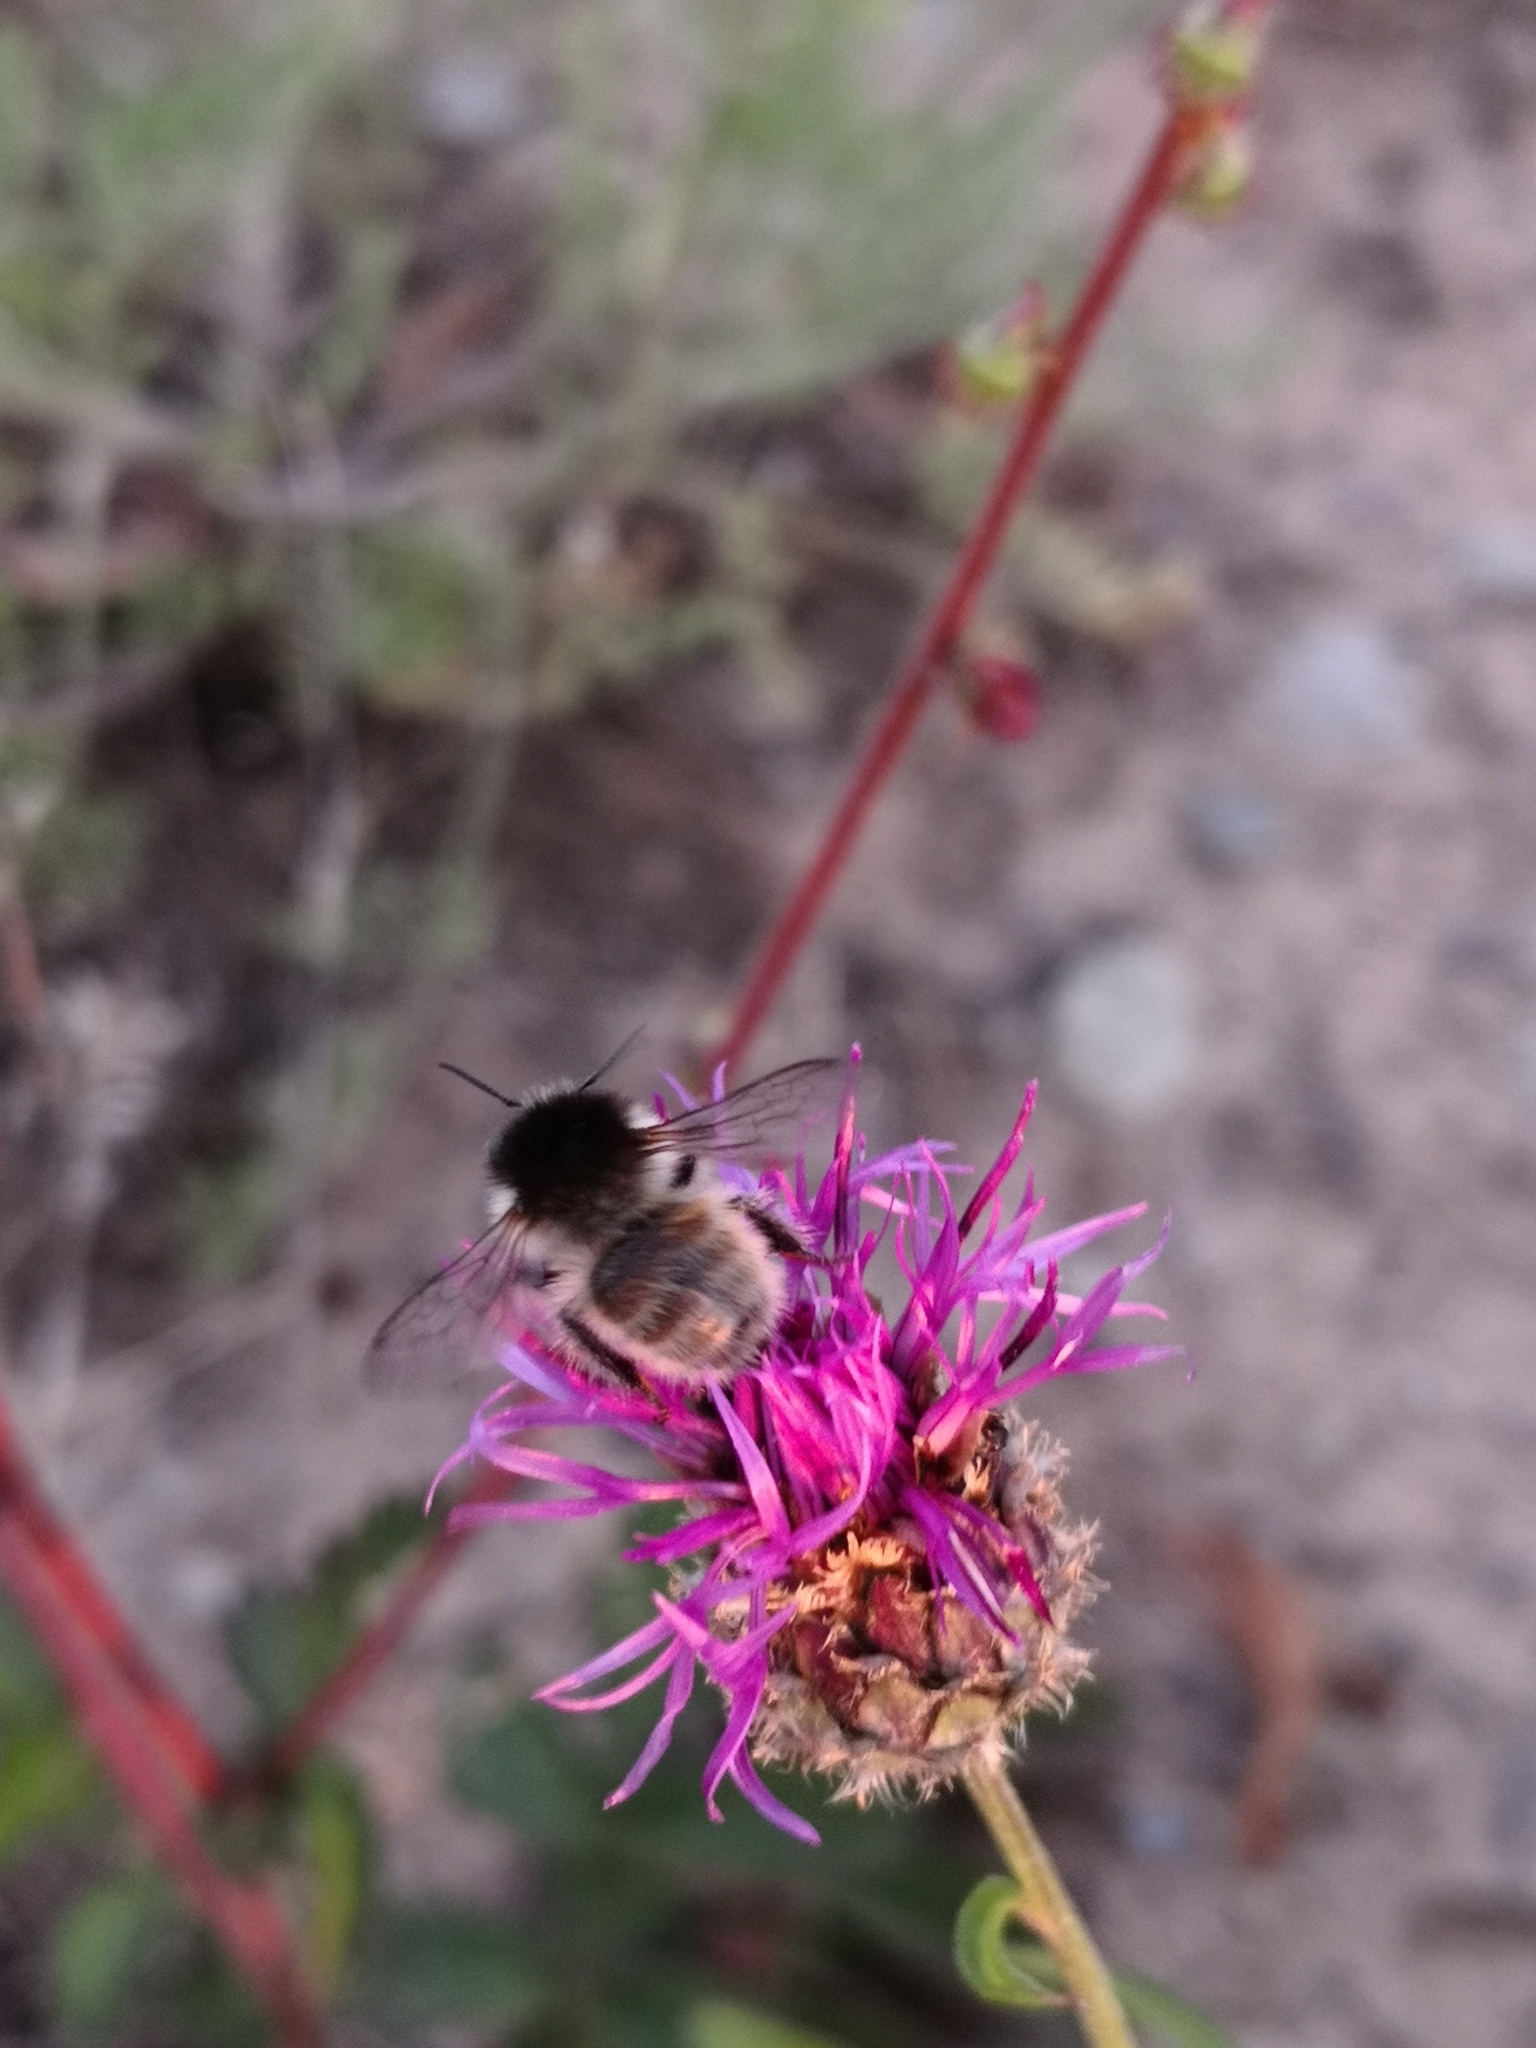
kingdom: Animalia
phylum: Arthropoda
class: Insecta
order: Hymenoptera
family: Apidae
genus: Bombus
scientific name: Bombus humilis
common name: Brown-banded carder-bee
